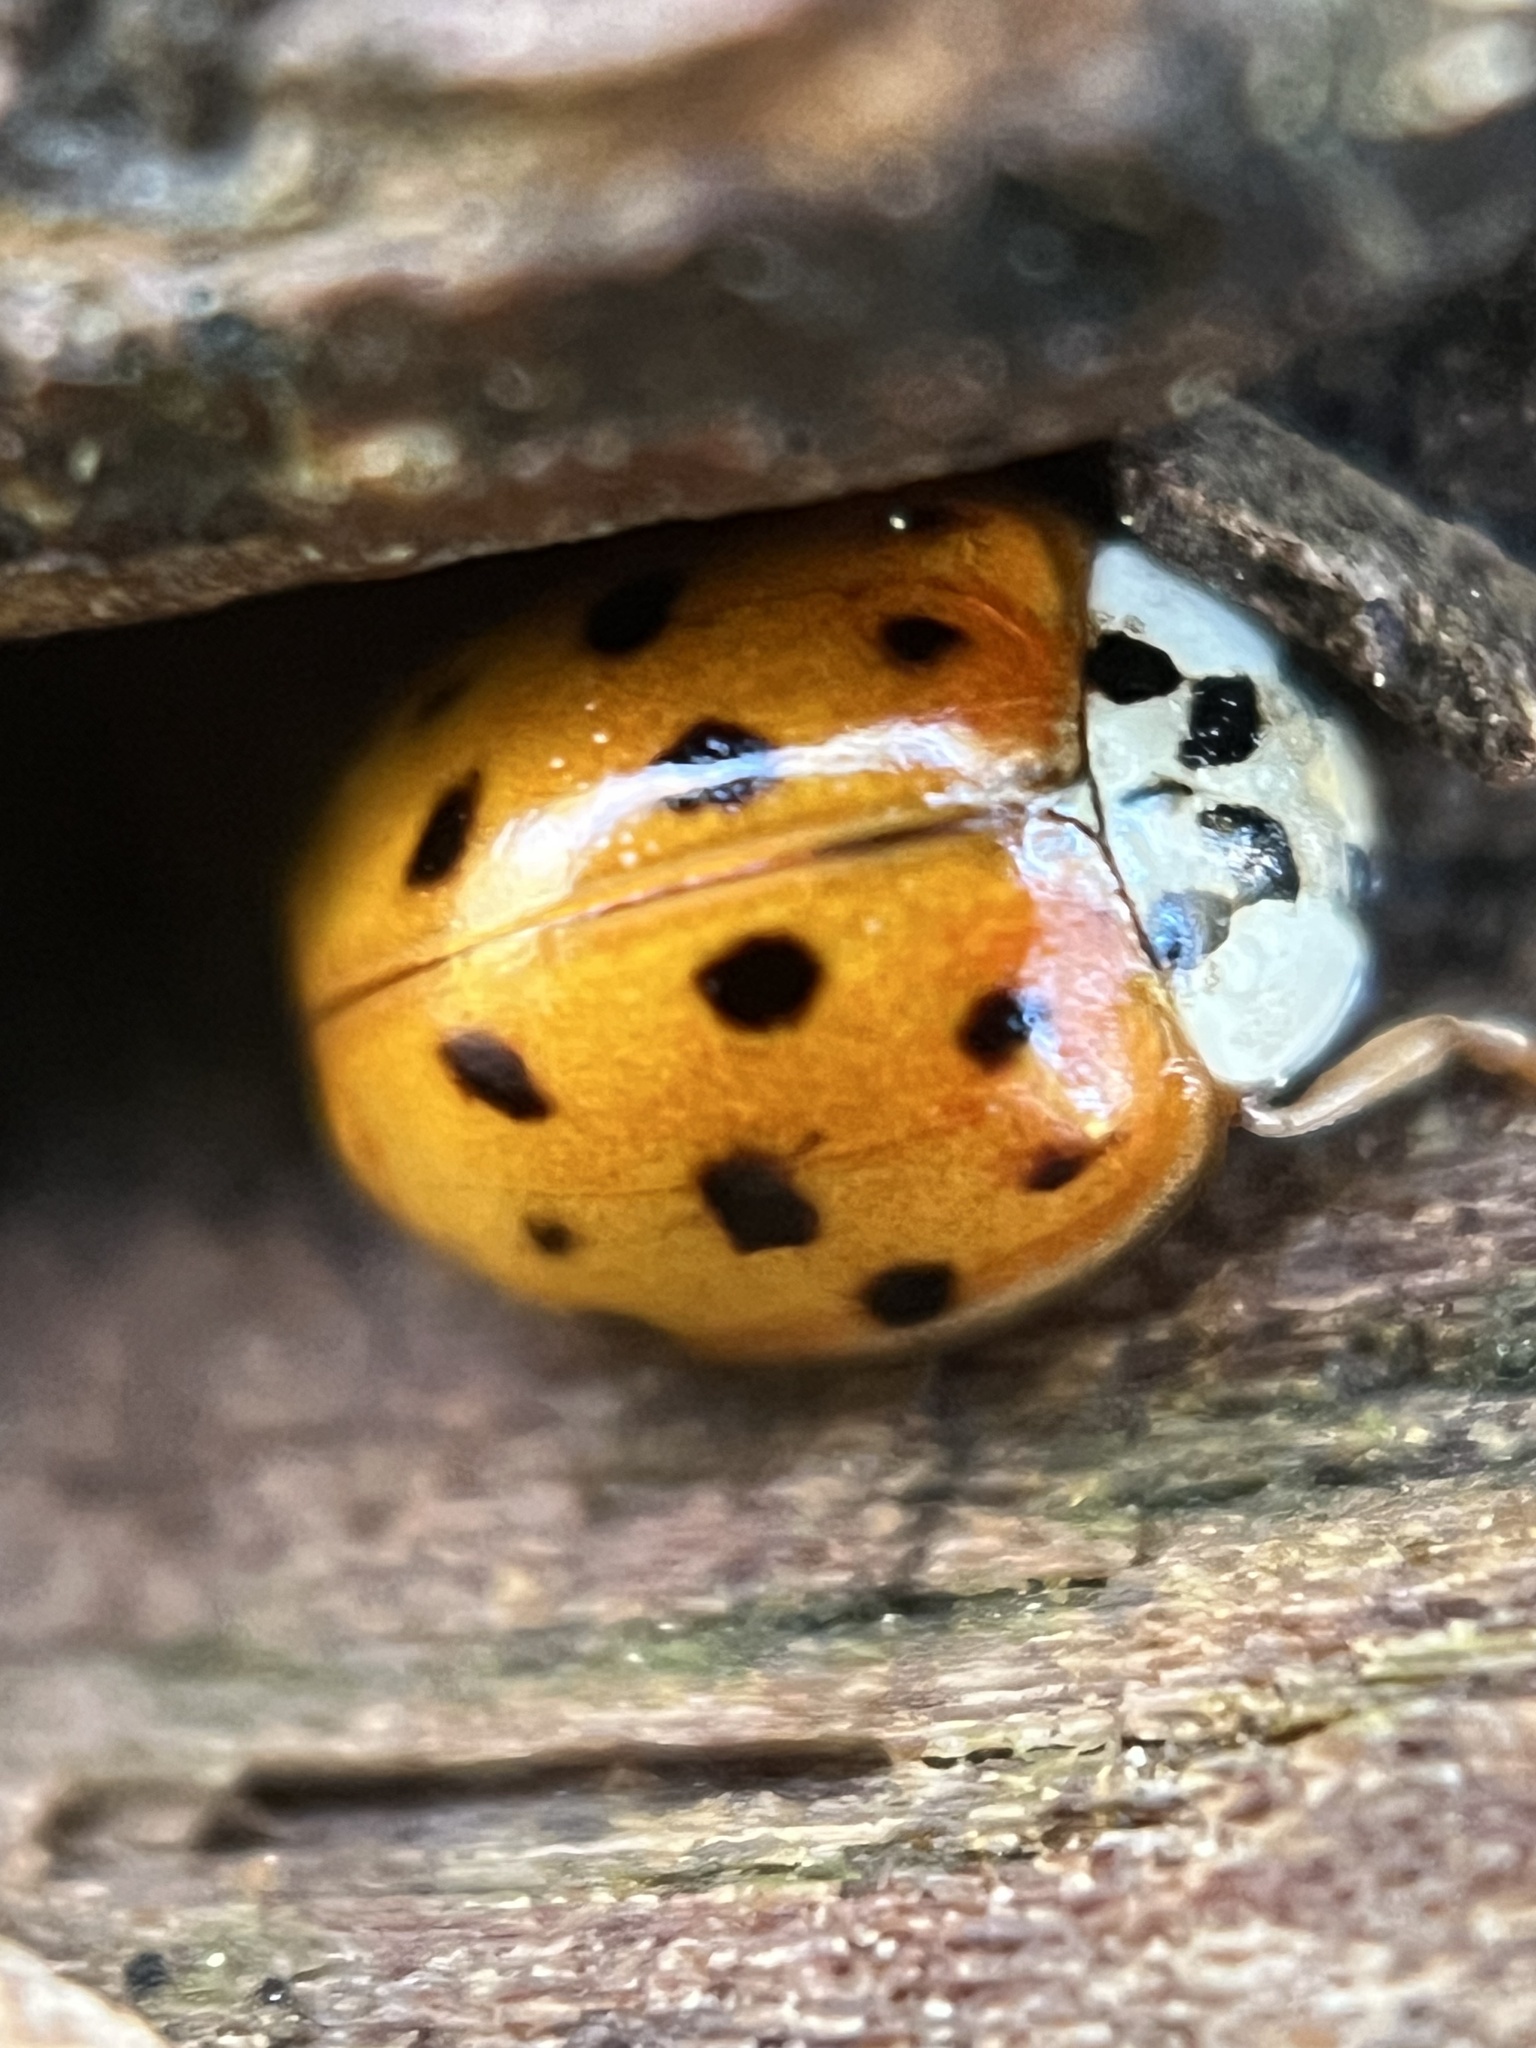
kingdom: Animalia
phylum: Arthropoda
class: Insecta
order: Coleoptera
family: Coccinellidae
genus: Harmonia
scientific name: Harmonia axyridis
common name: Harlequin ladybird
